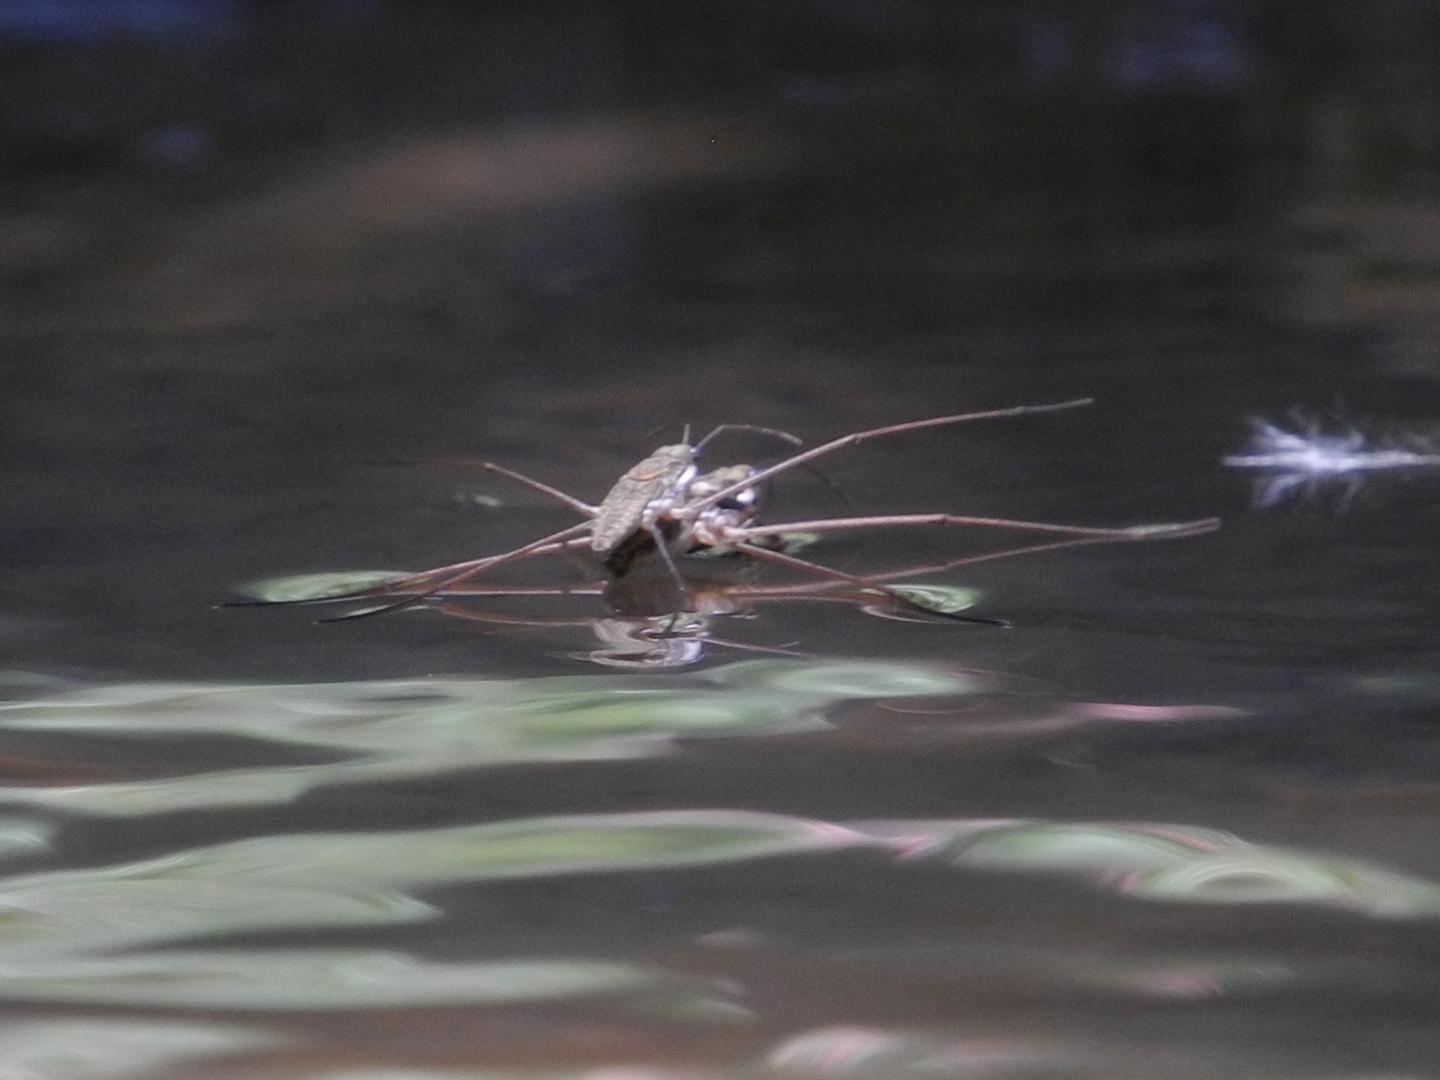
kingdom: Animalia
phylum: Arthropoda
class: Insecta
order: Hemiptera
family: Gerridae
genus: Aquarius
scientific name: Aquarius ventralis
